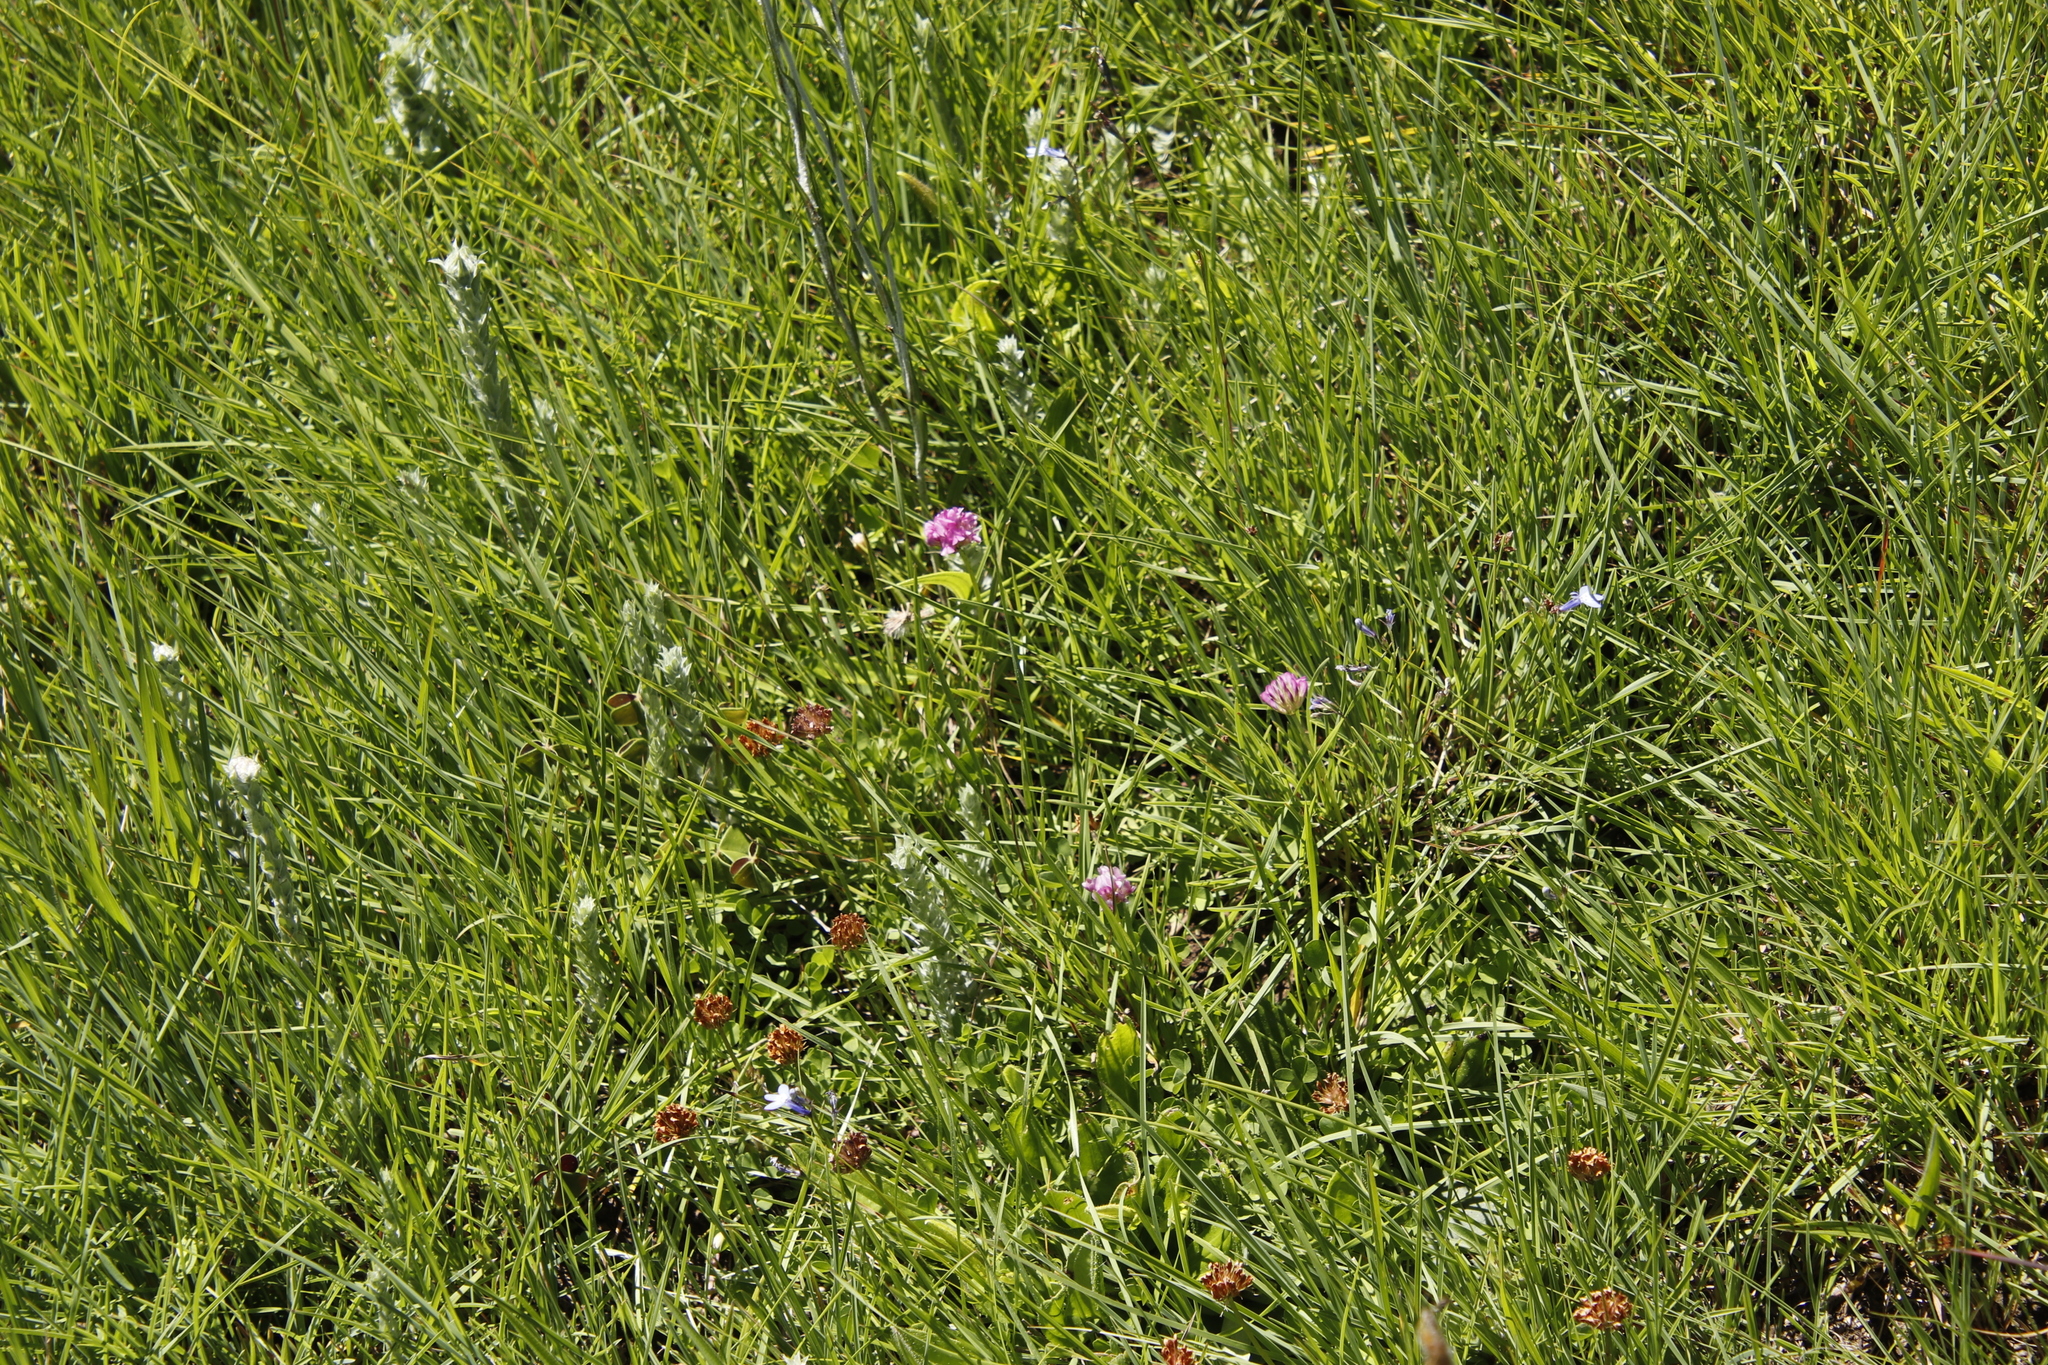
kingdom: Plantae
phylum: Tracheophyta
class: Magnoliopsida
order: Fabales
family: Fabaceae
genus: Trifolium
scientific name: Trifolium burchellianum
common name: Burchell's clover
